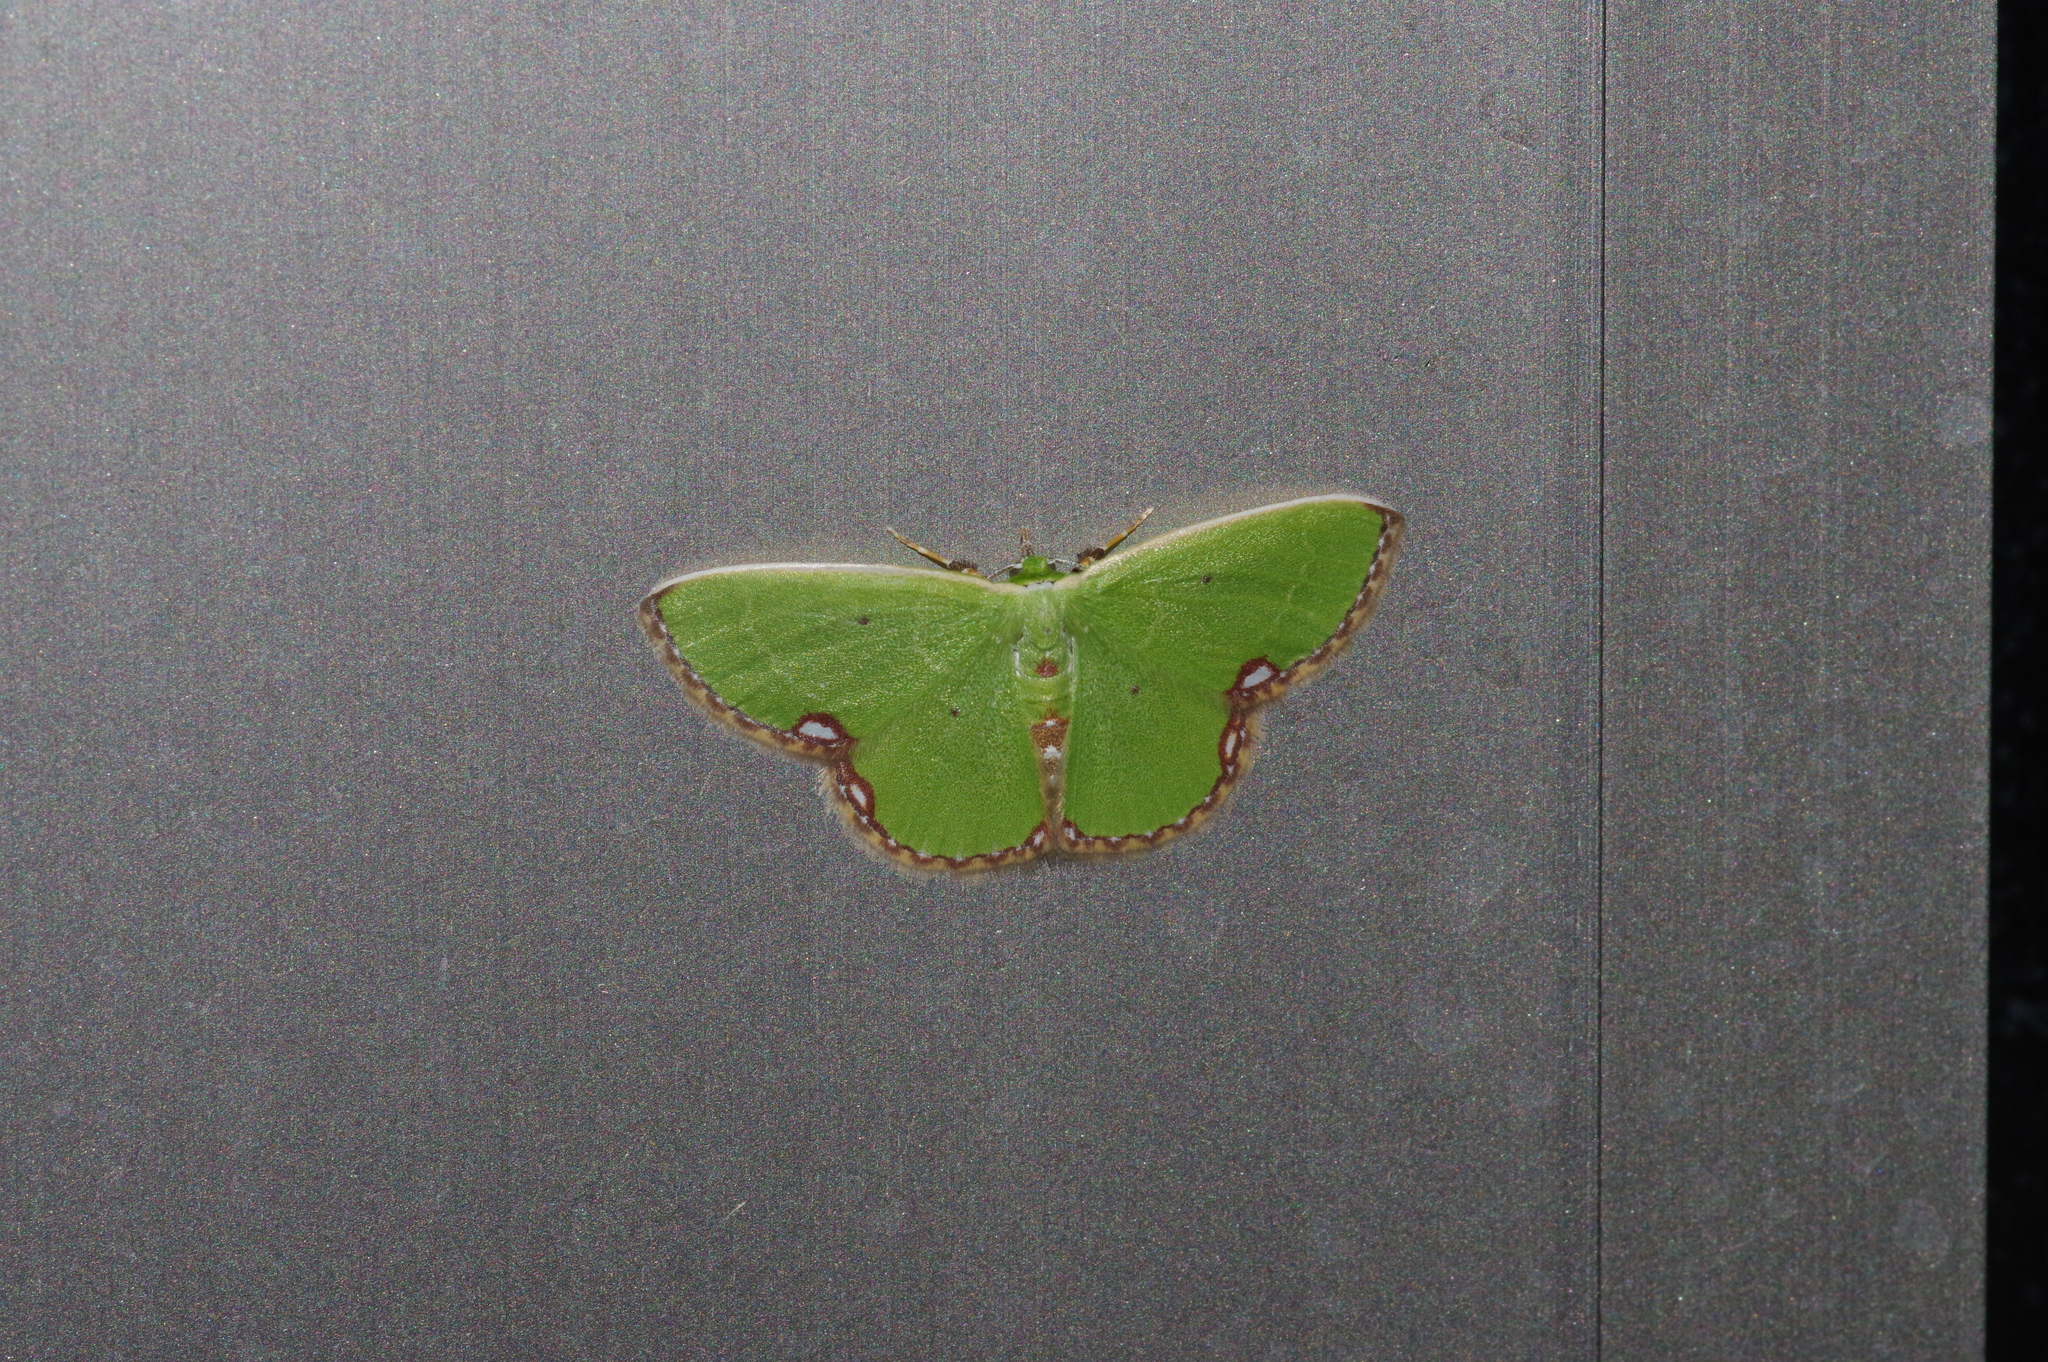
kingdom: Animalia
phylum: Arthropoda
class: Insecta
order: Lepidoptera
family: Geometridae
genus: Comibaena
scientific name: Comibaena procumbaria
